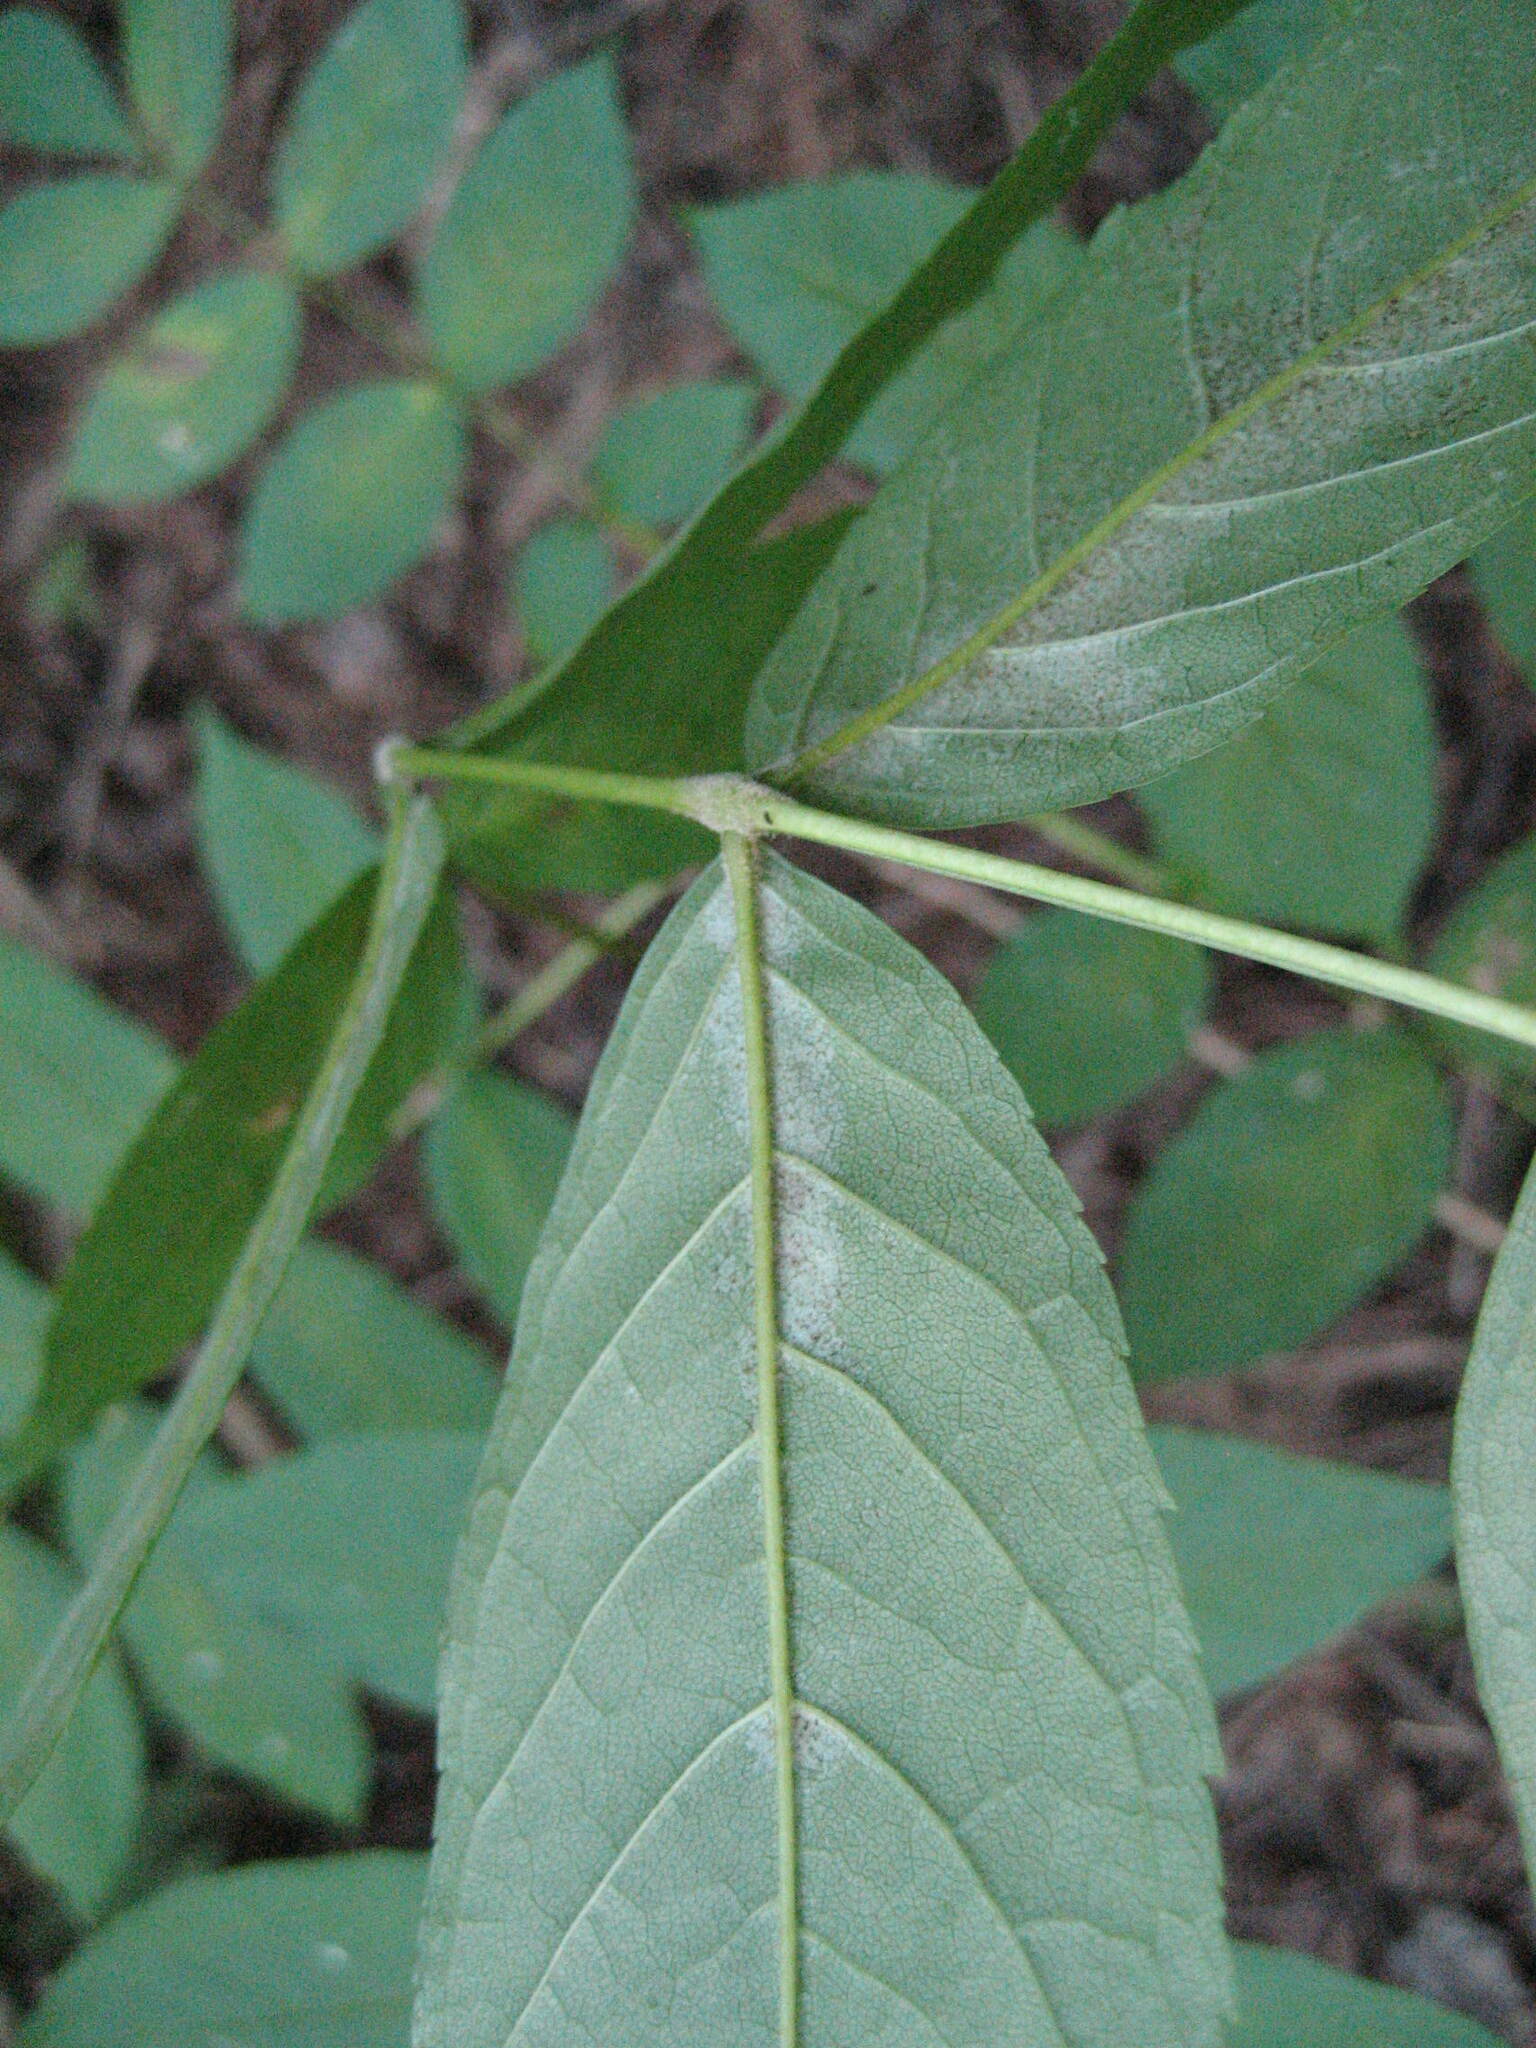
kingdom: Plantae
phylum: Tracheophyta
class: Magnoliopsida
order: Lamiales
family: Oleaceae
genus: Fraxinus
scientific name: Fraxinus nigra
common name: Black ash
